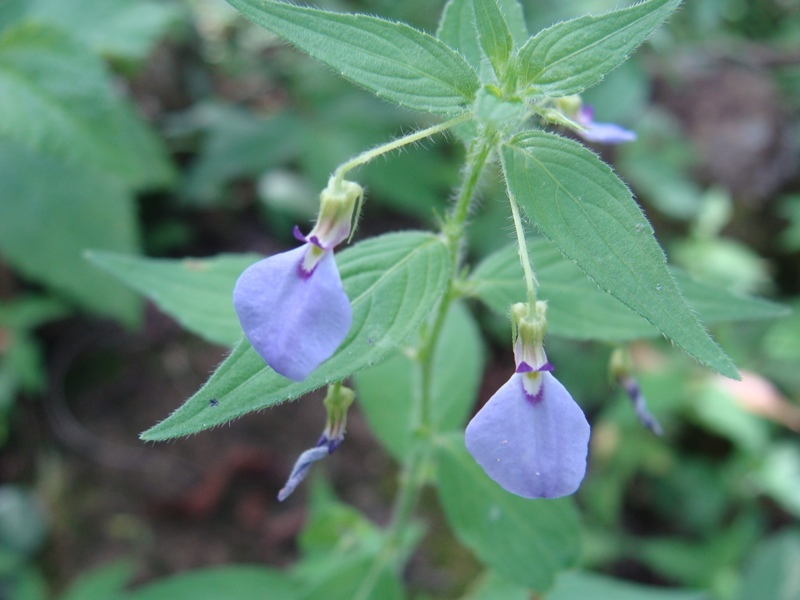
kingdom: Plantae
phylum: Tracheophyta
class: Magnoliopsida
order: Malpighiales
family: Violaceae
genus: Pombalia
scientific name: Pombalia glabra
